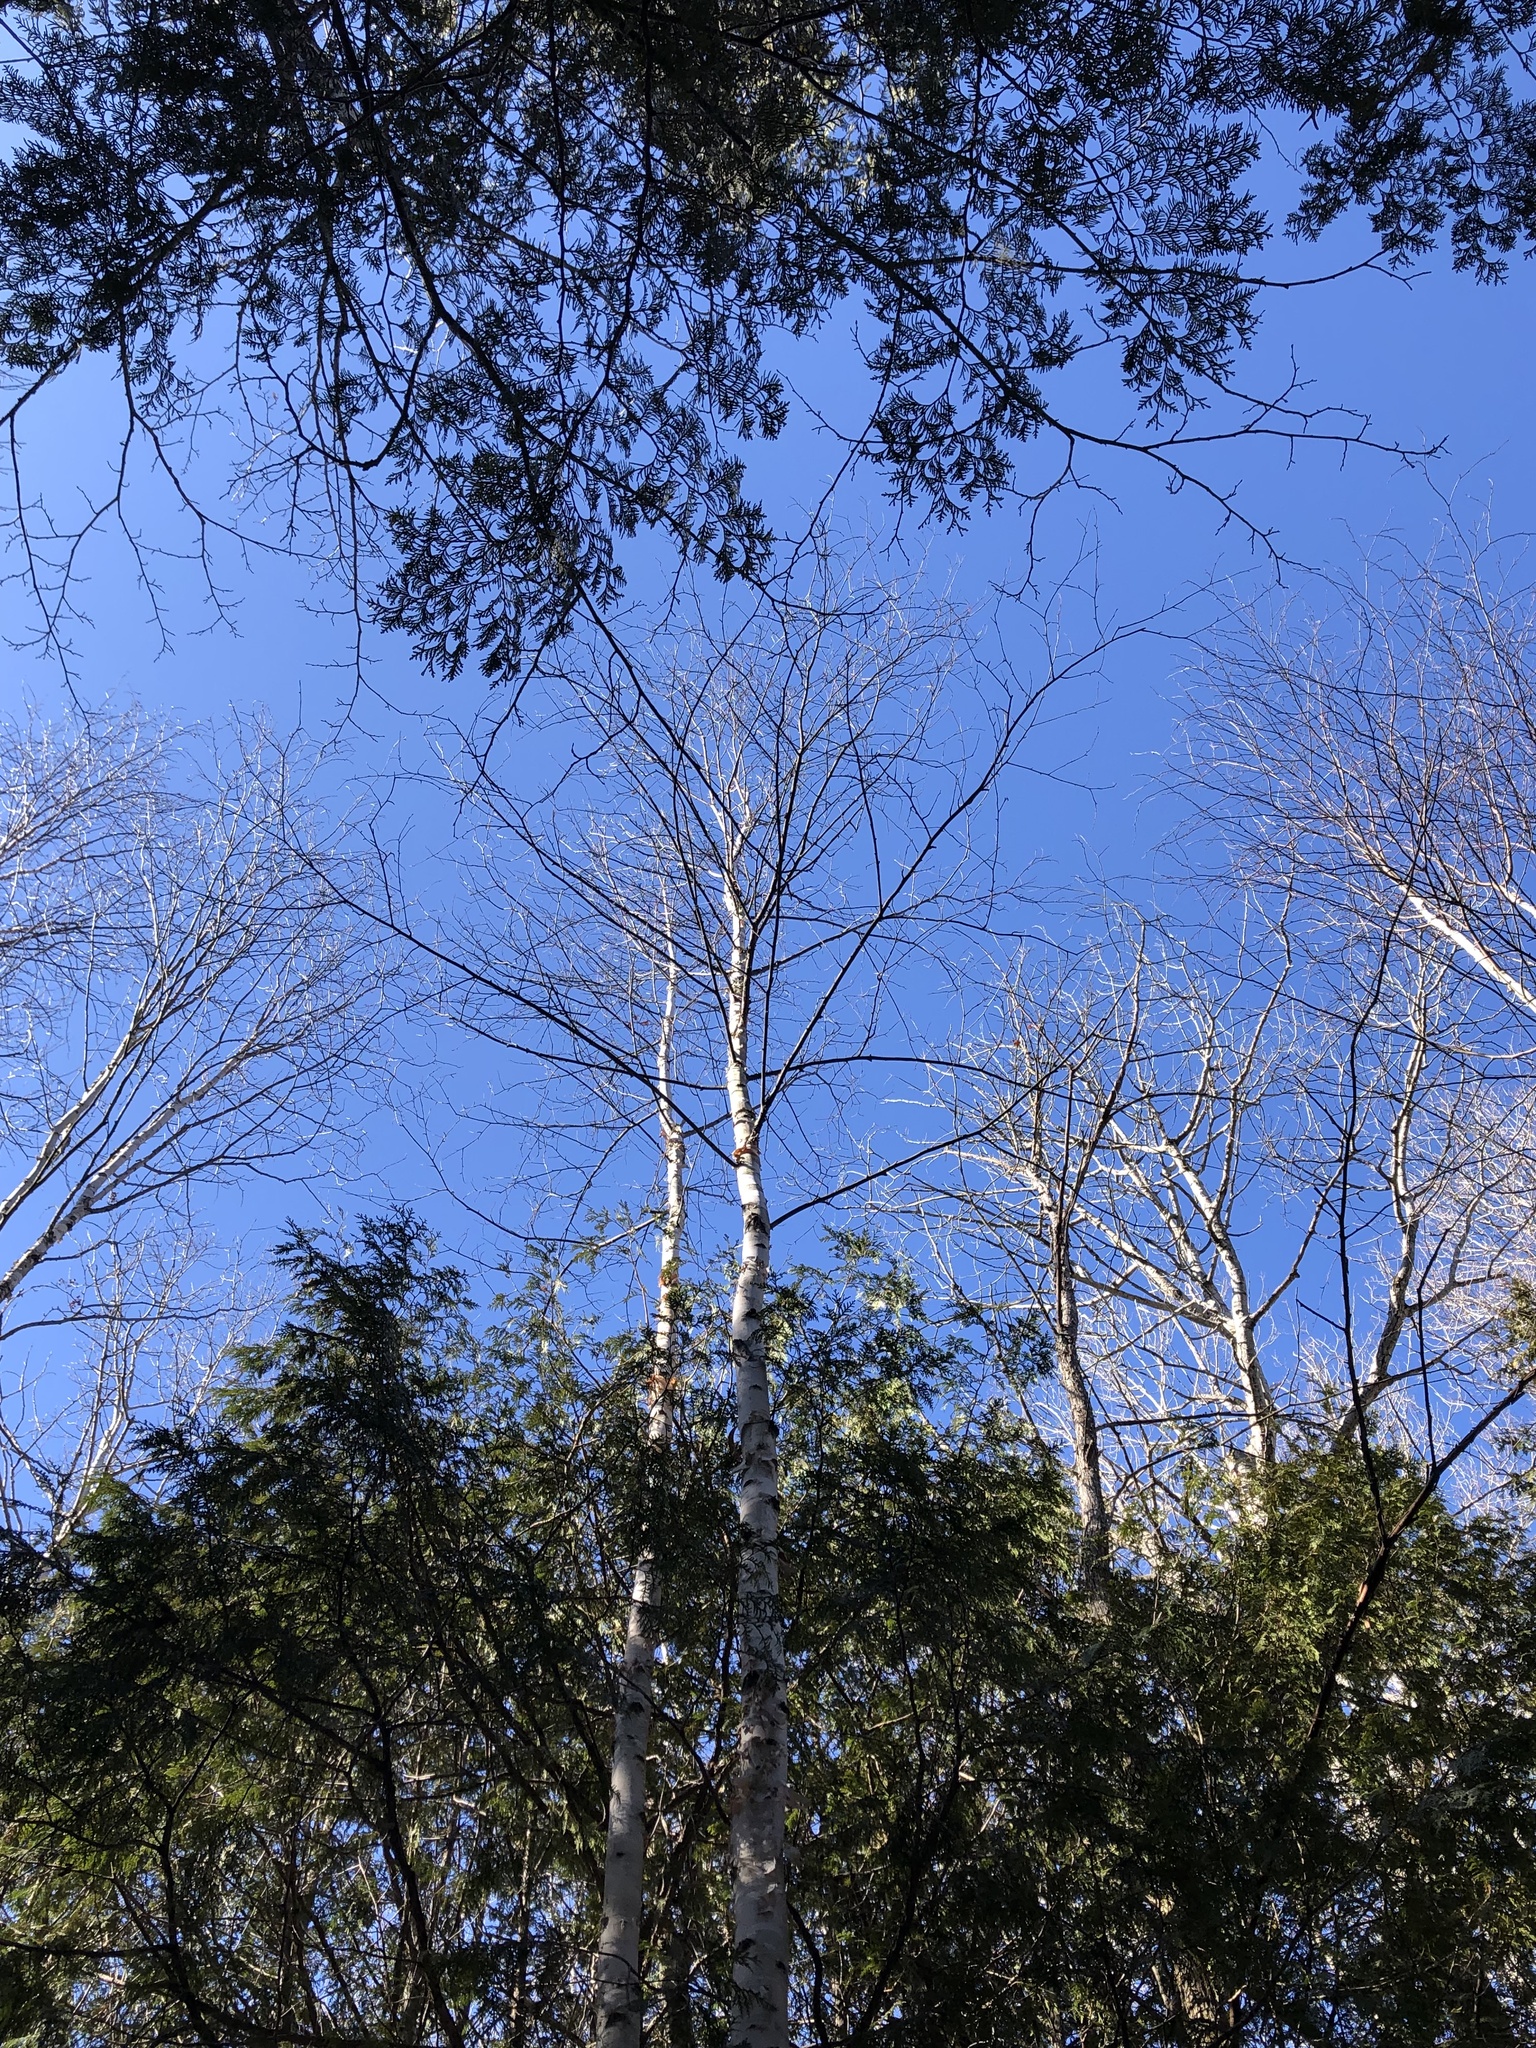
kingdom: Plantae
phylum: Tracheophyta
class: Magnoliopsida
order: Fagales
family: Betulaceae
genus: Betula
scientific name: Betula papyrifera
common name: Paper birch
